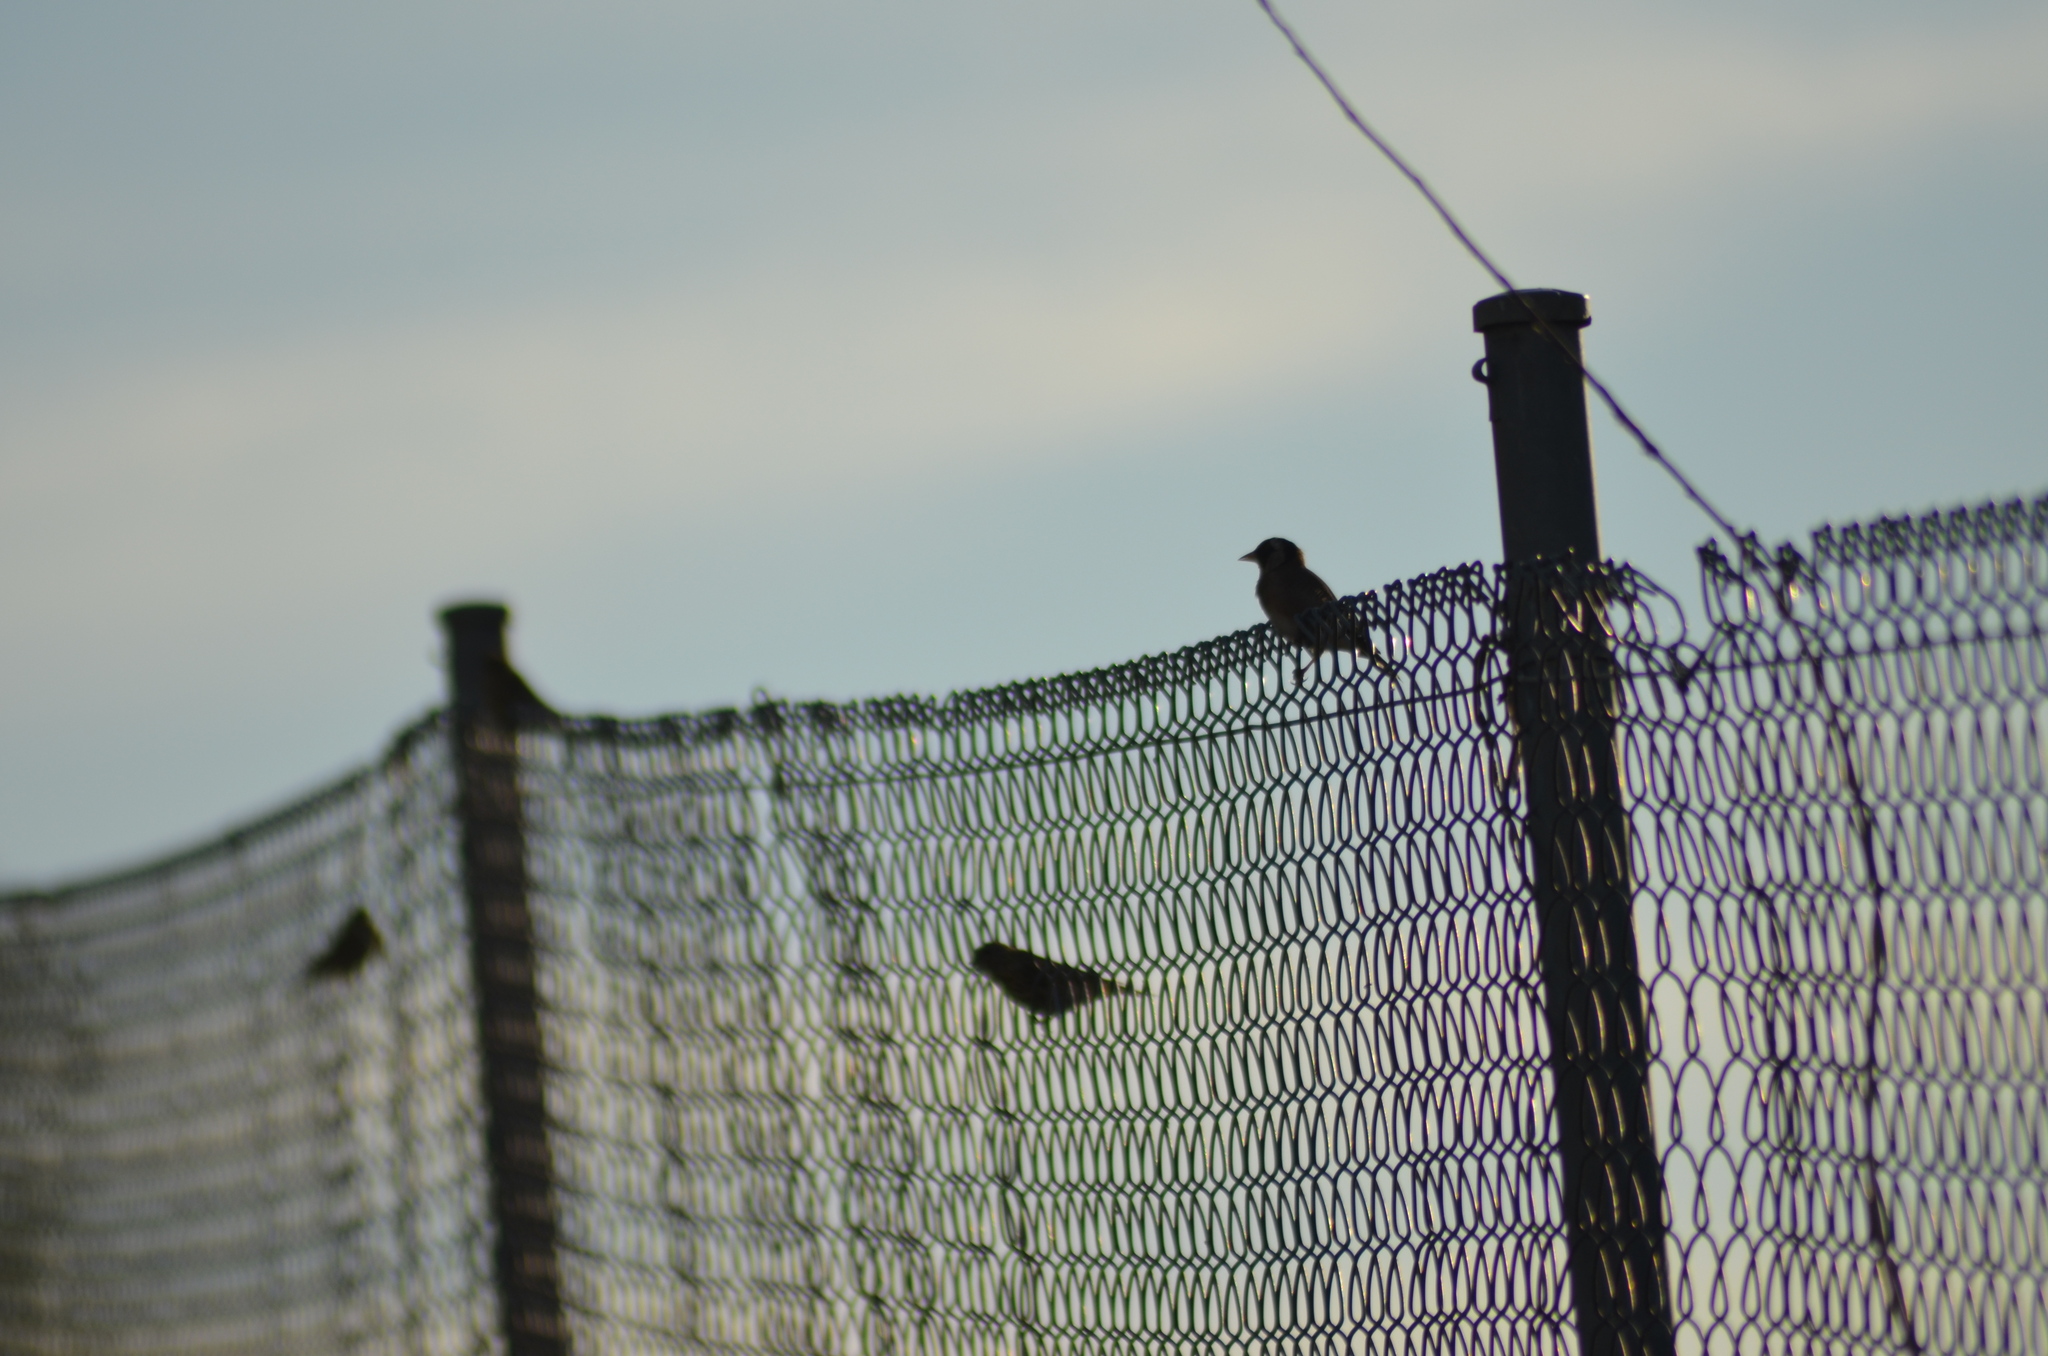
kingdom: Animalia
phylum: Chordata
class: Aves
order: Passeriformes
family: Fringillidae
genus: Carduelis
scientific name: Carduelis carduelis
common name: European goldfinch
